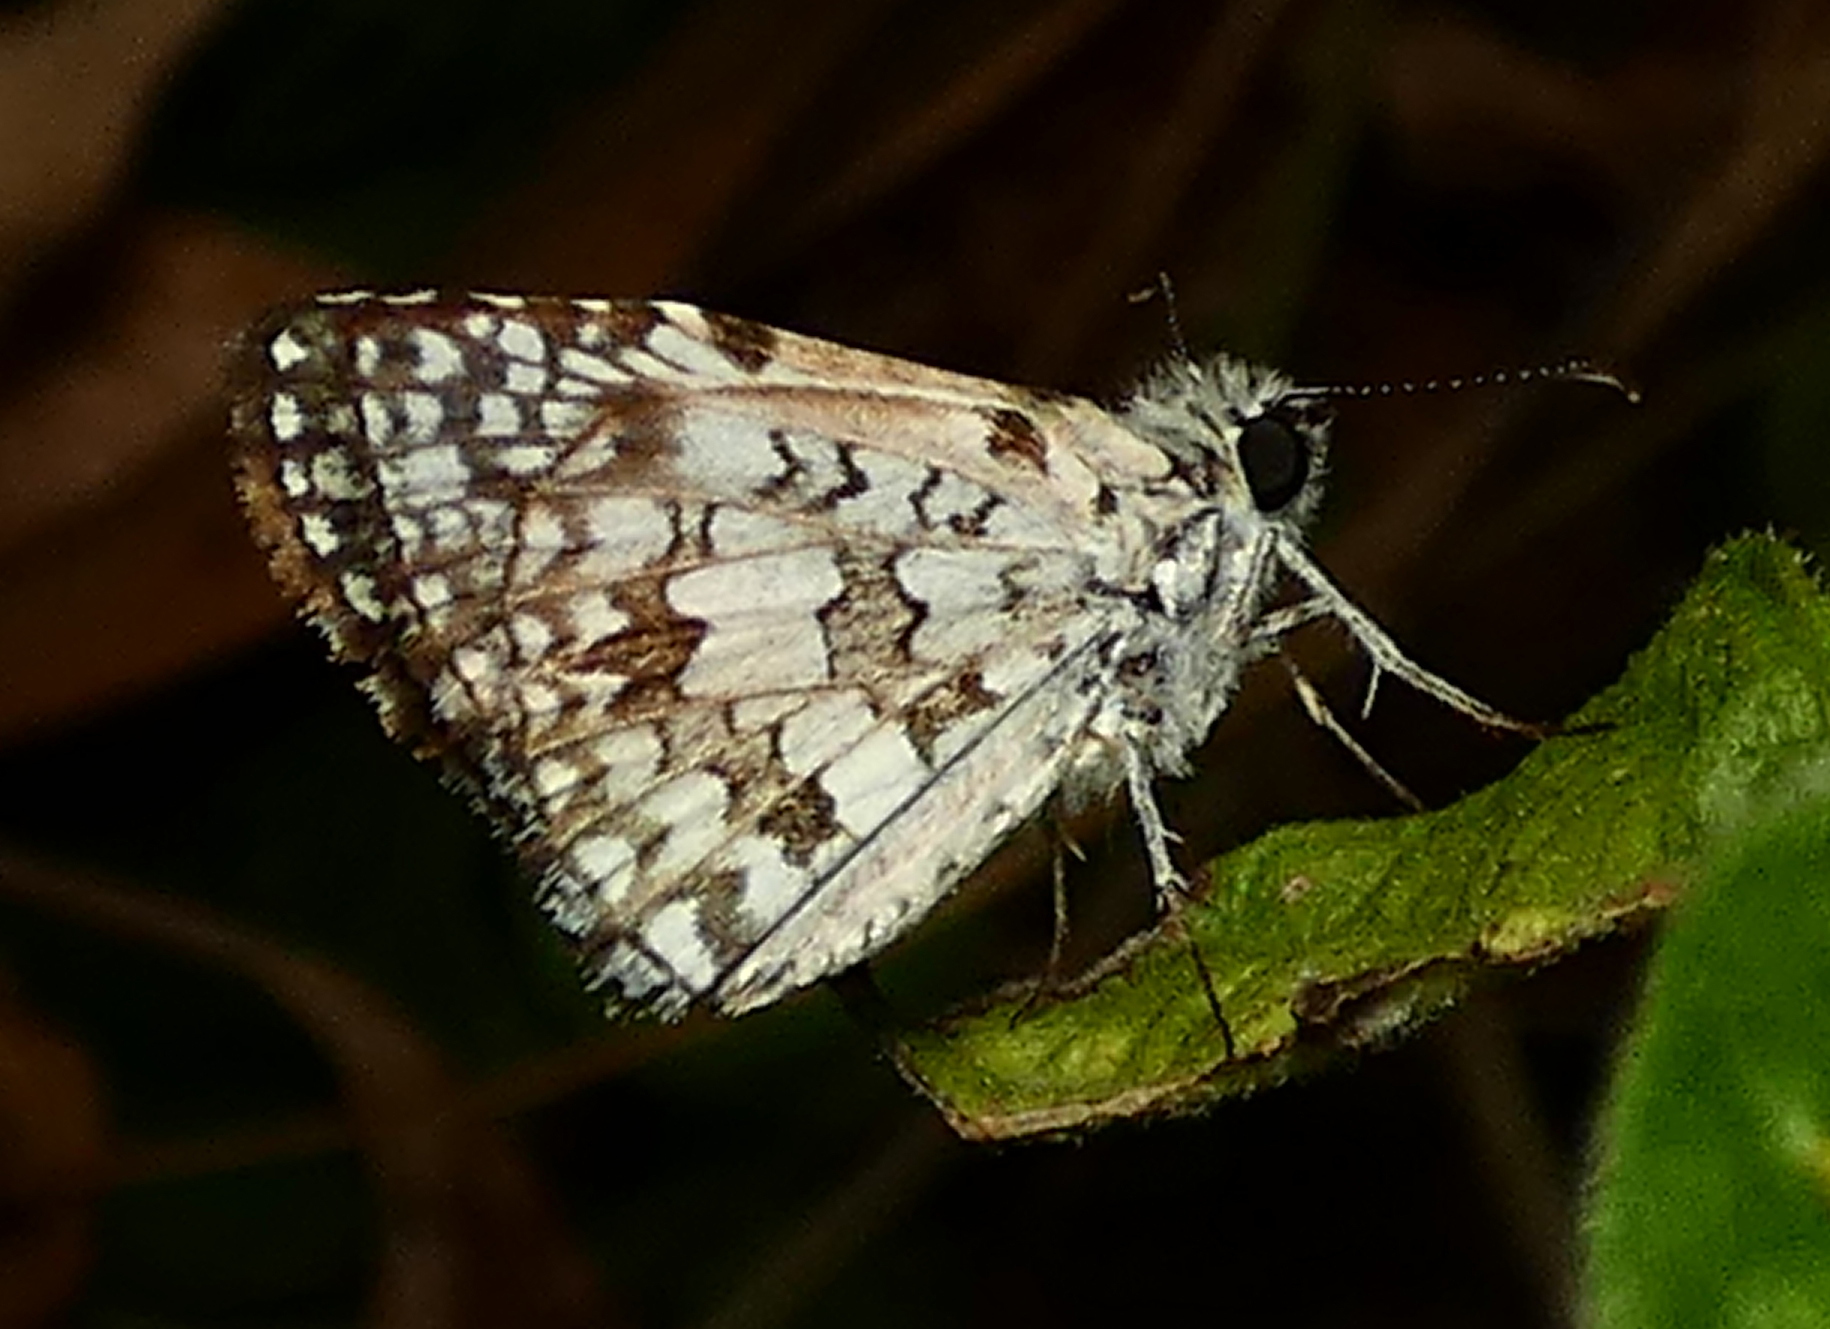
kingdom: Animalia
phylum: Arthropoda
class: Insecta
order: Lepidoptera
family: Hesperiidae
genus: Pyrgus
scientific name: Pyrgus oileus
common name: Tropical checkered-skipper
